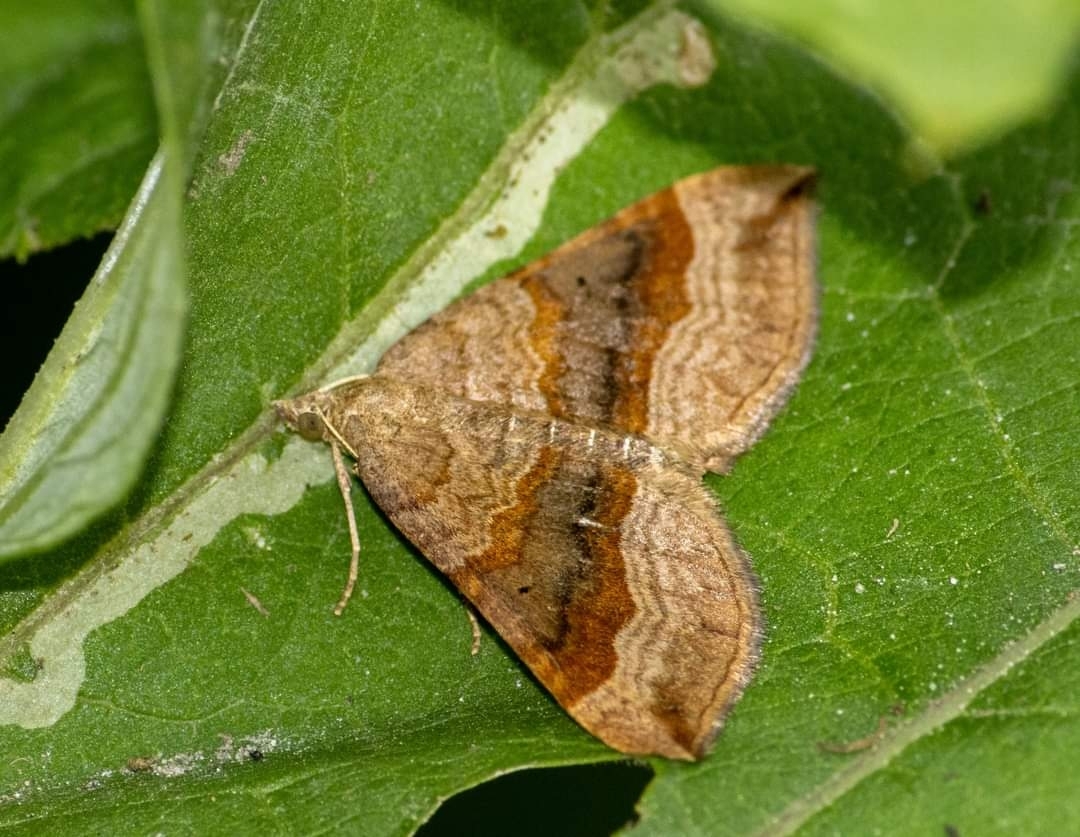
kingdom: Animalia
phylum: Arthropoda
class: Insecta
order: Lepidoptera
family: Geometridae
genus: Scotopteryx
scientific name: Scotopteryx chenopodiata
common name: Shaded broad-bar
